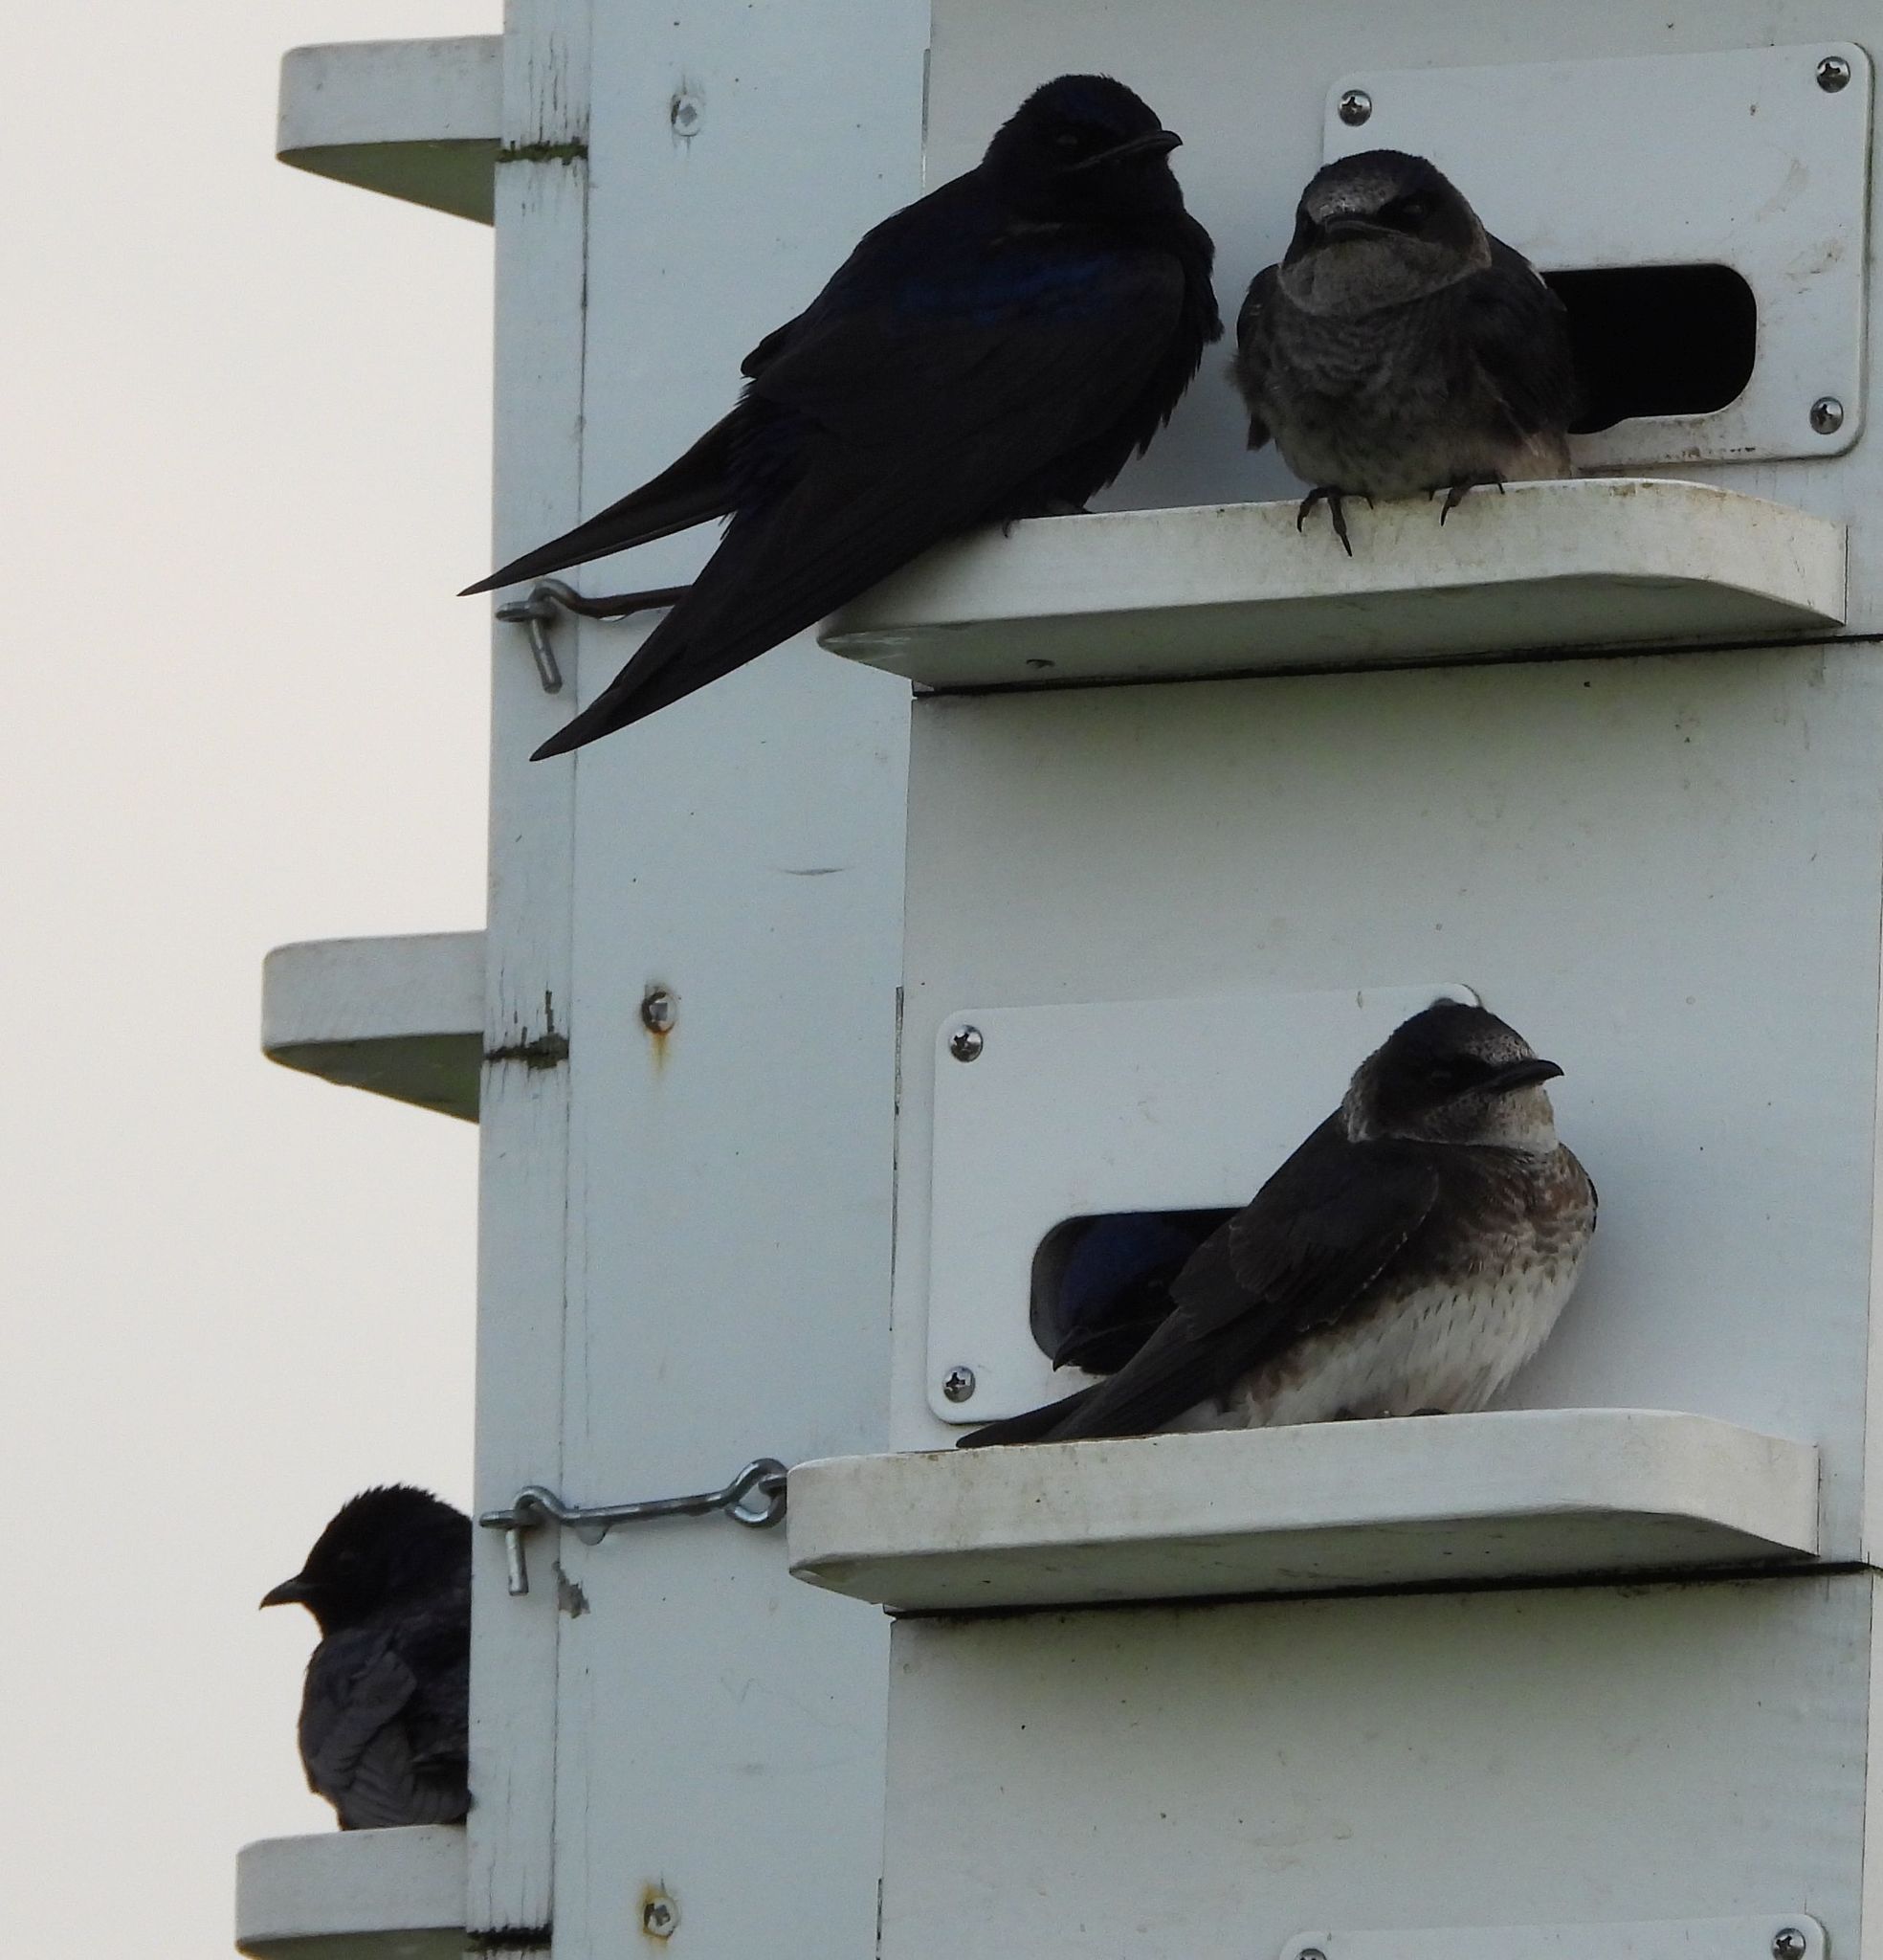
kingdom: Animalia
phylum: Chordata
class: Aves
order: Passeriformes
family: Hirundinidae
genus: Progne
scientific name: Progne subis
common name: Purple martin
